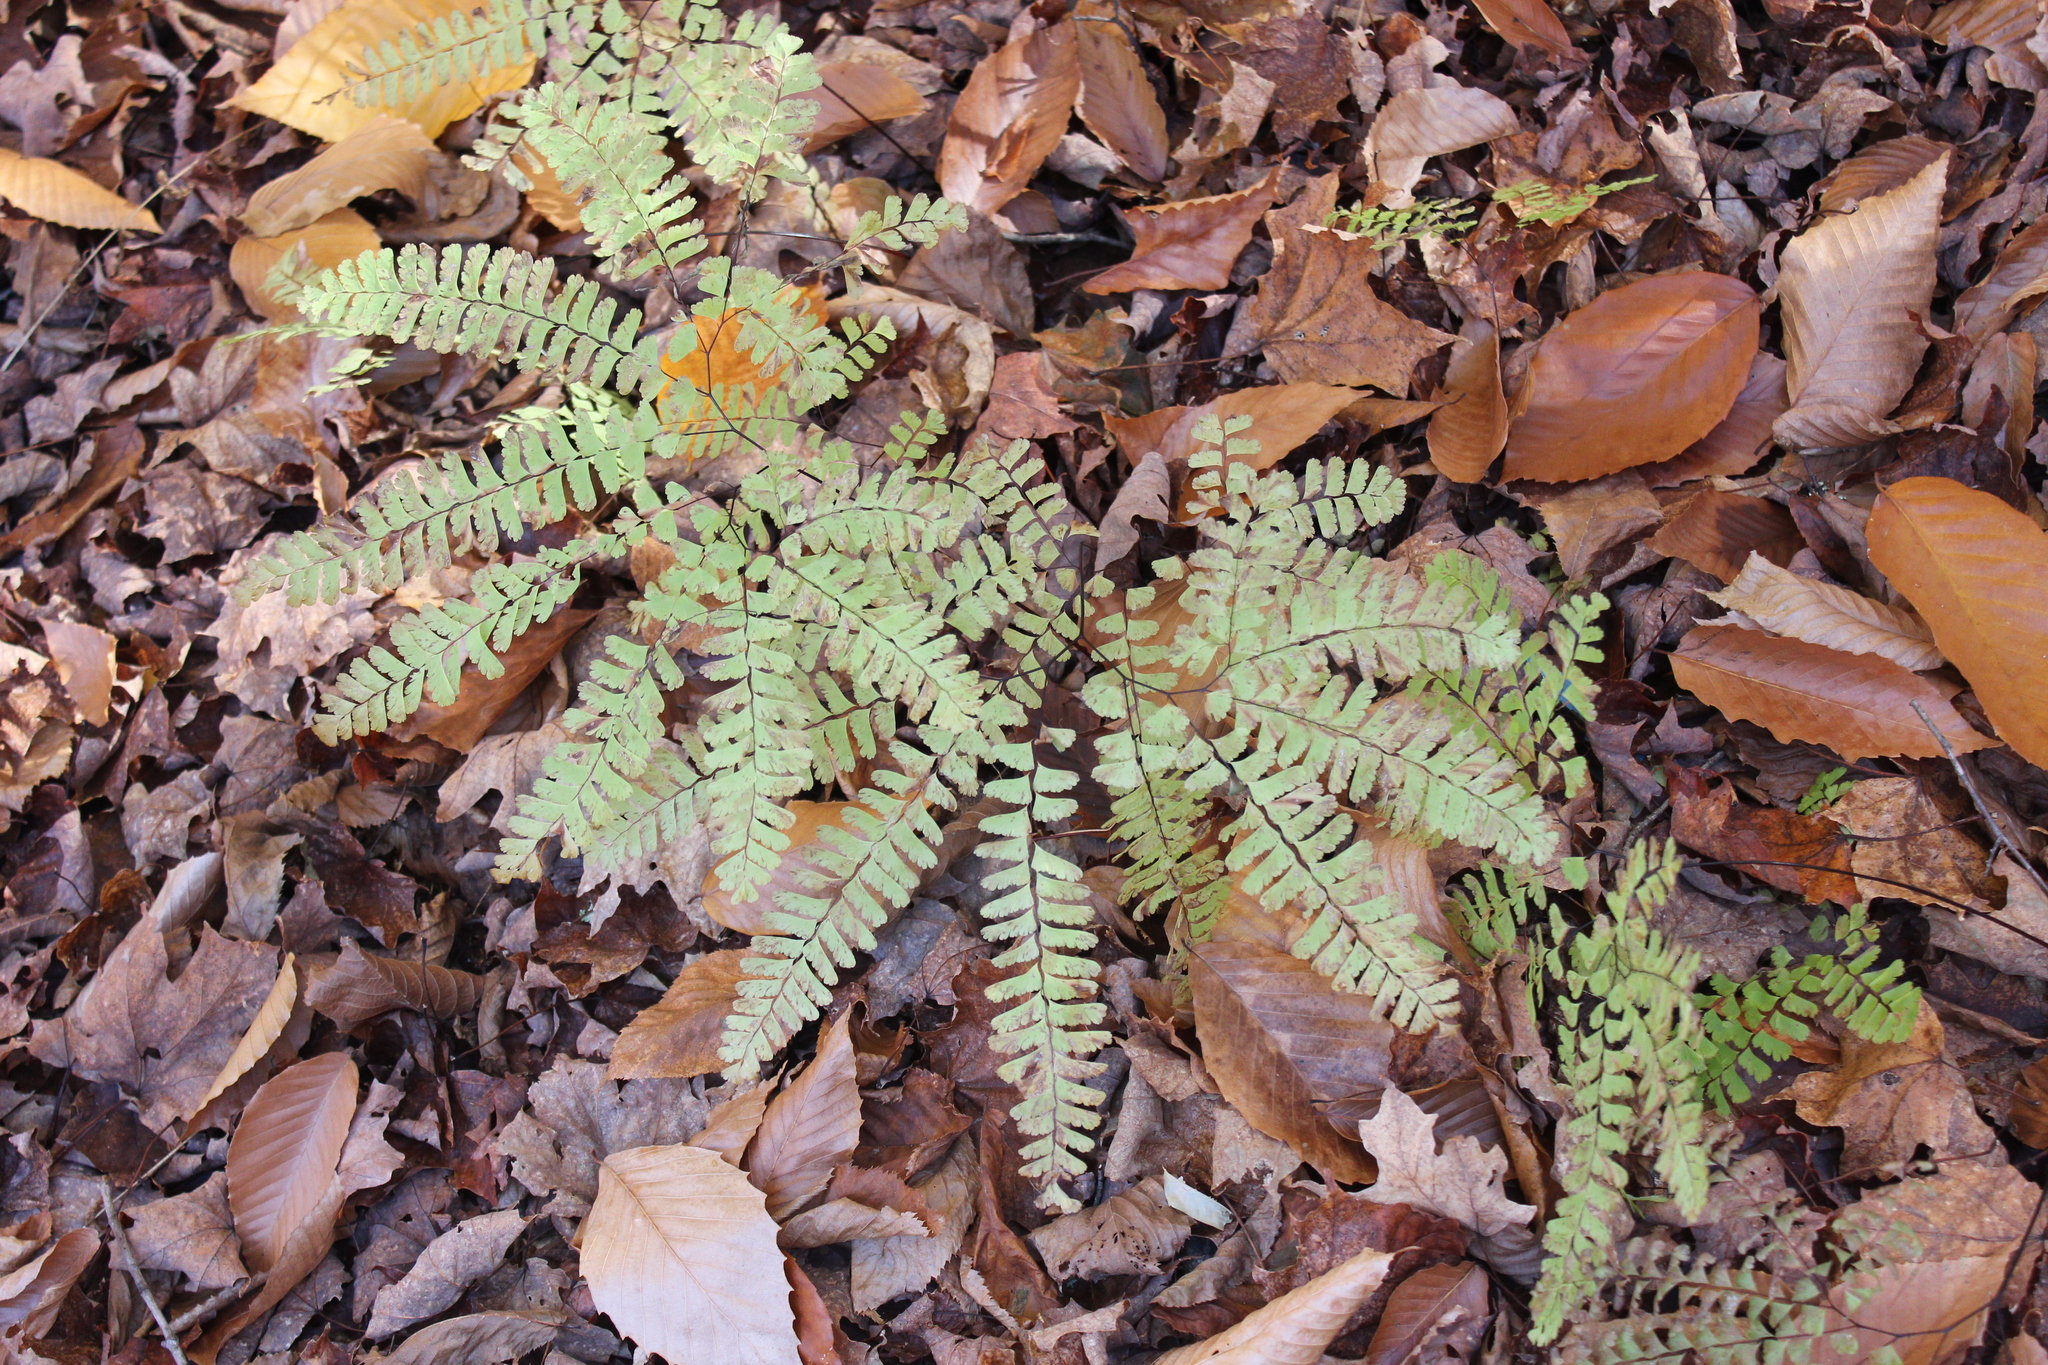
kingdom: Plantae
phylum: Tracheophyta
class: Polypodiopsida
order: Polypodiales
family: Pteridaceae
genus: Adiantum
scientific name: Adiantum pedatum
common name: Five-finger fern
